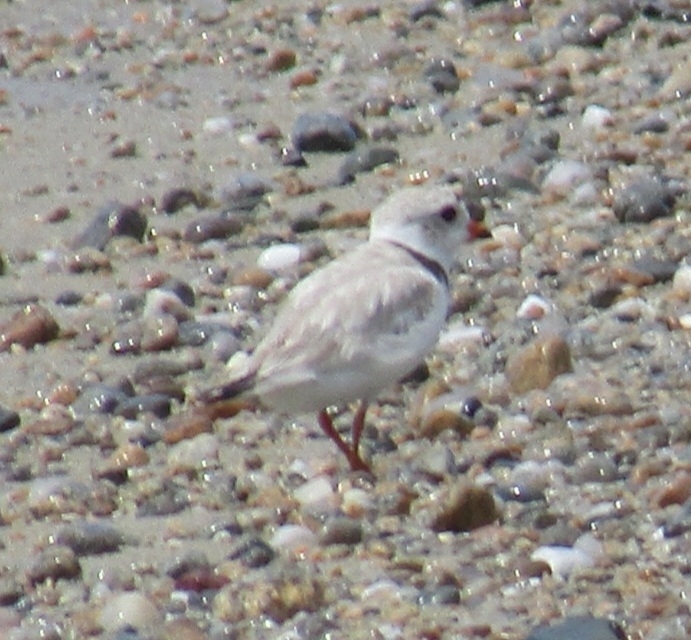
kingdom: Animalia
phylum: Chordata
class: Aves
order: Charadriiformes
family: Charadriidae
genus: Charadrius
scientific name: Charadrius melodus
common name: Piping plover
